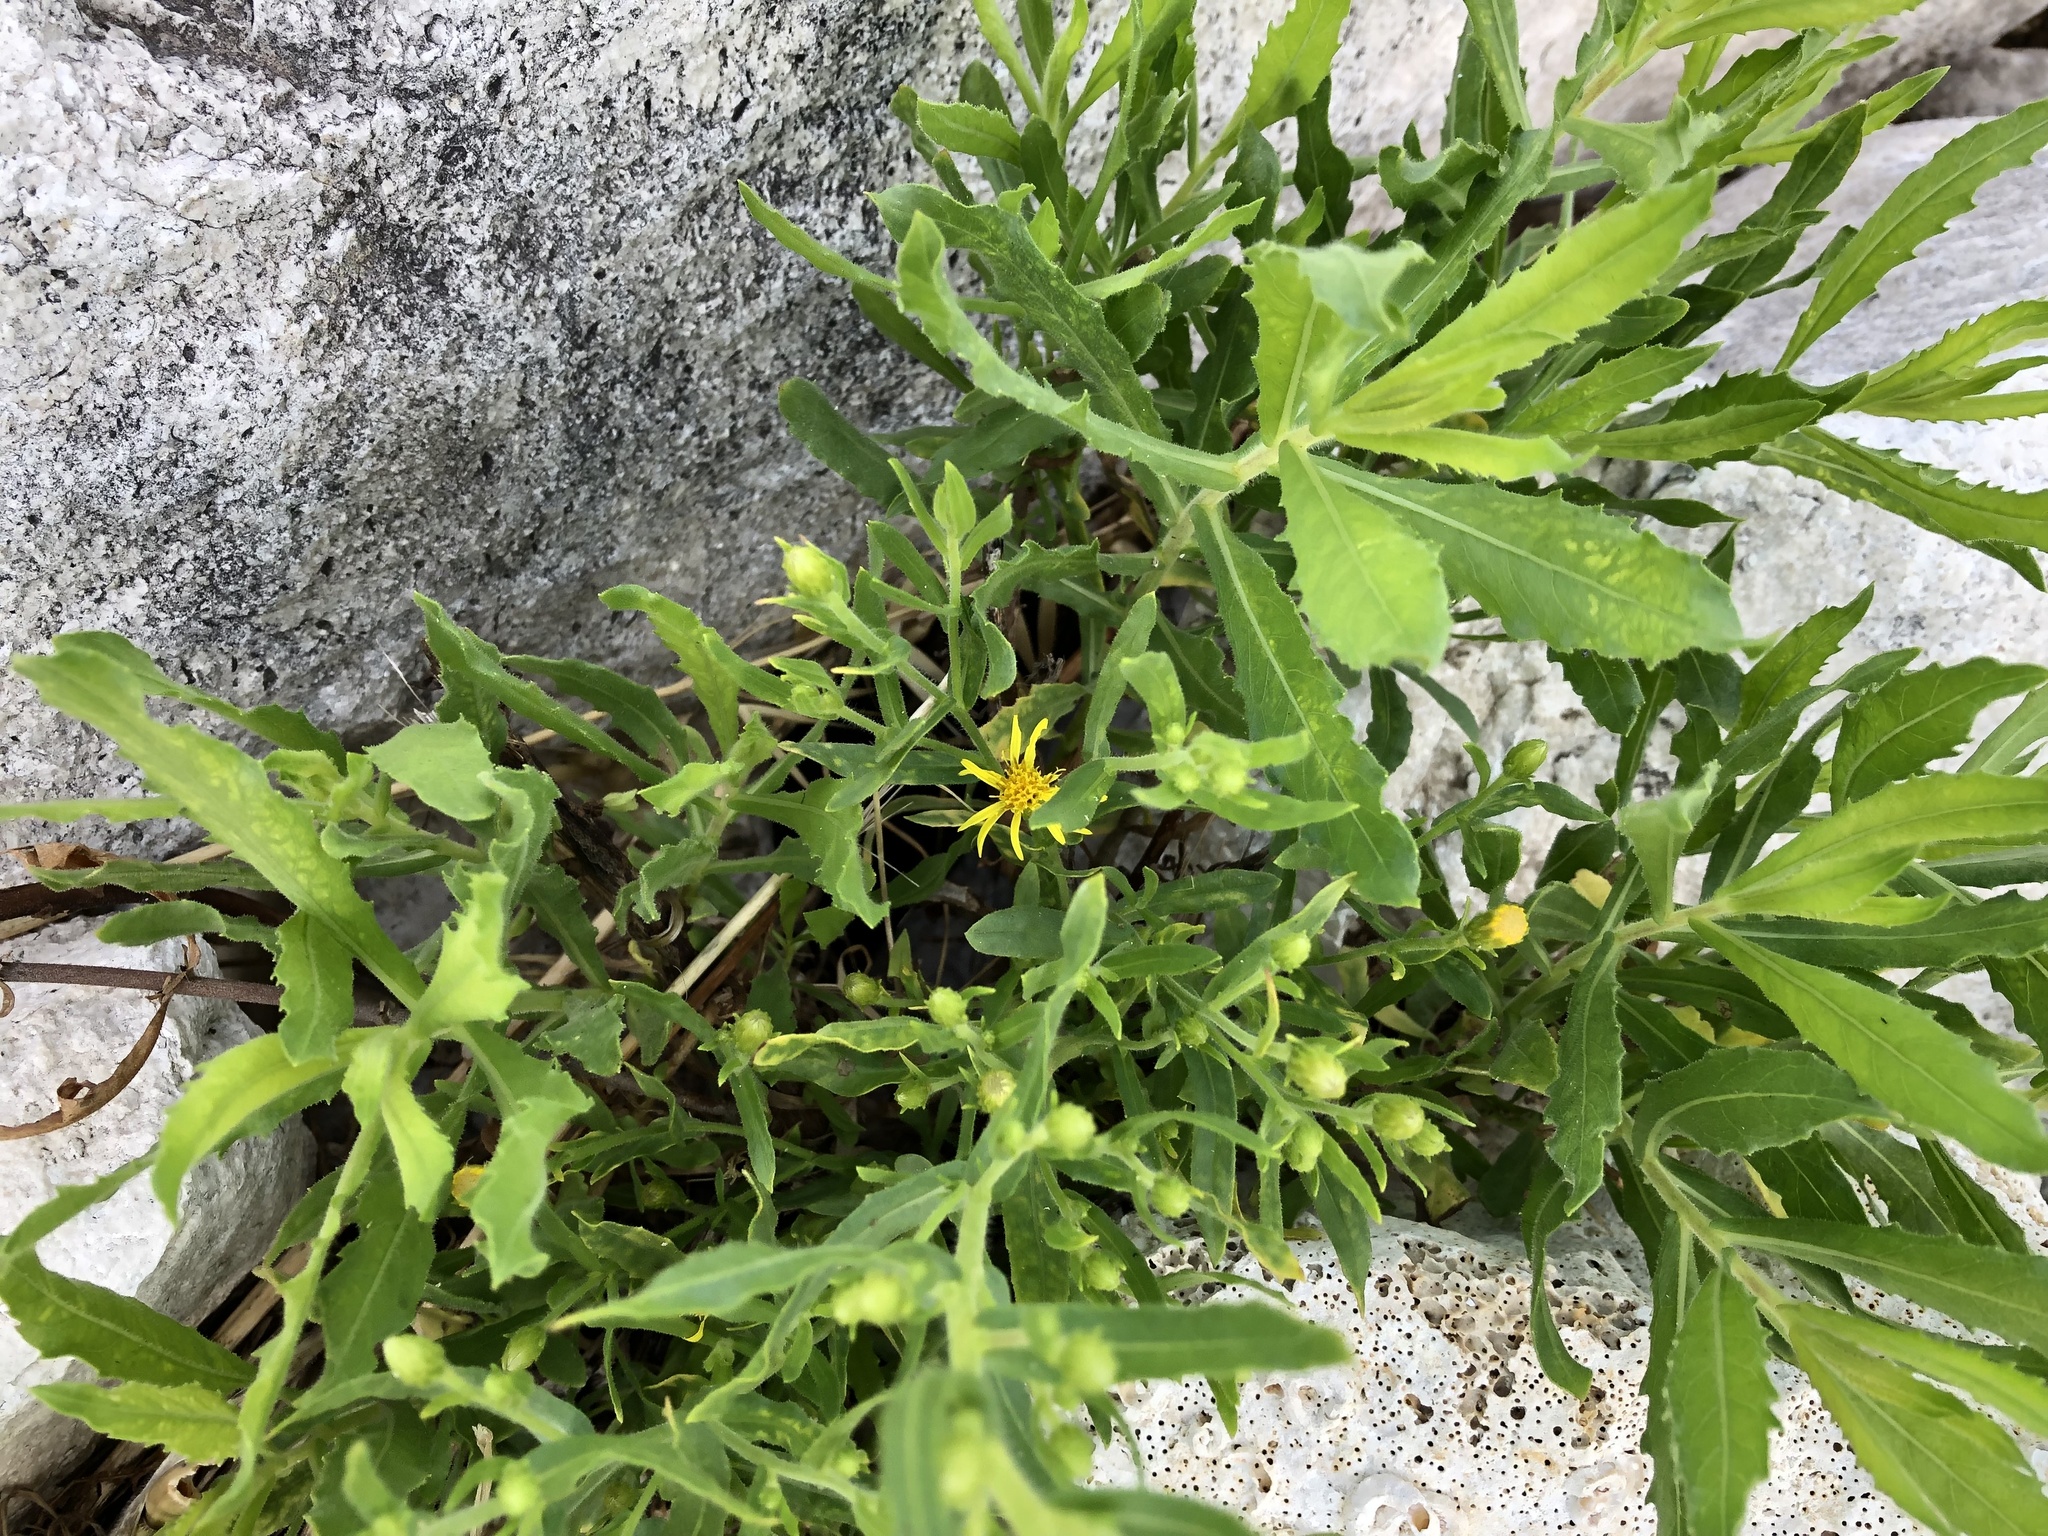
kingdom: Plantae
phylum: Tracheophyta
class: Magnoliopsida
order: Asterales
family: Asteraceae
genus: Dittrichia
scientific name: Dittrichia viscosa
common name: Woody fleabane
